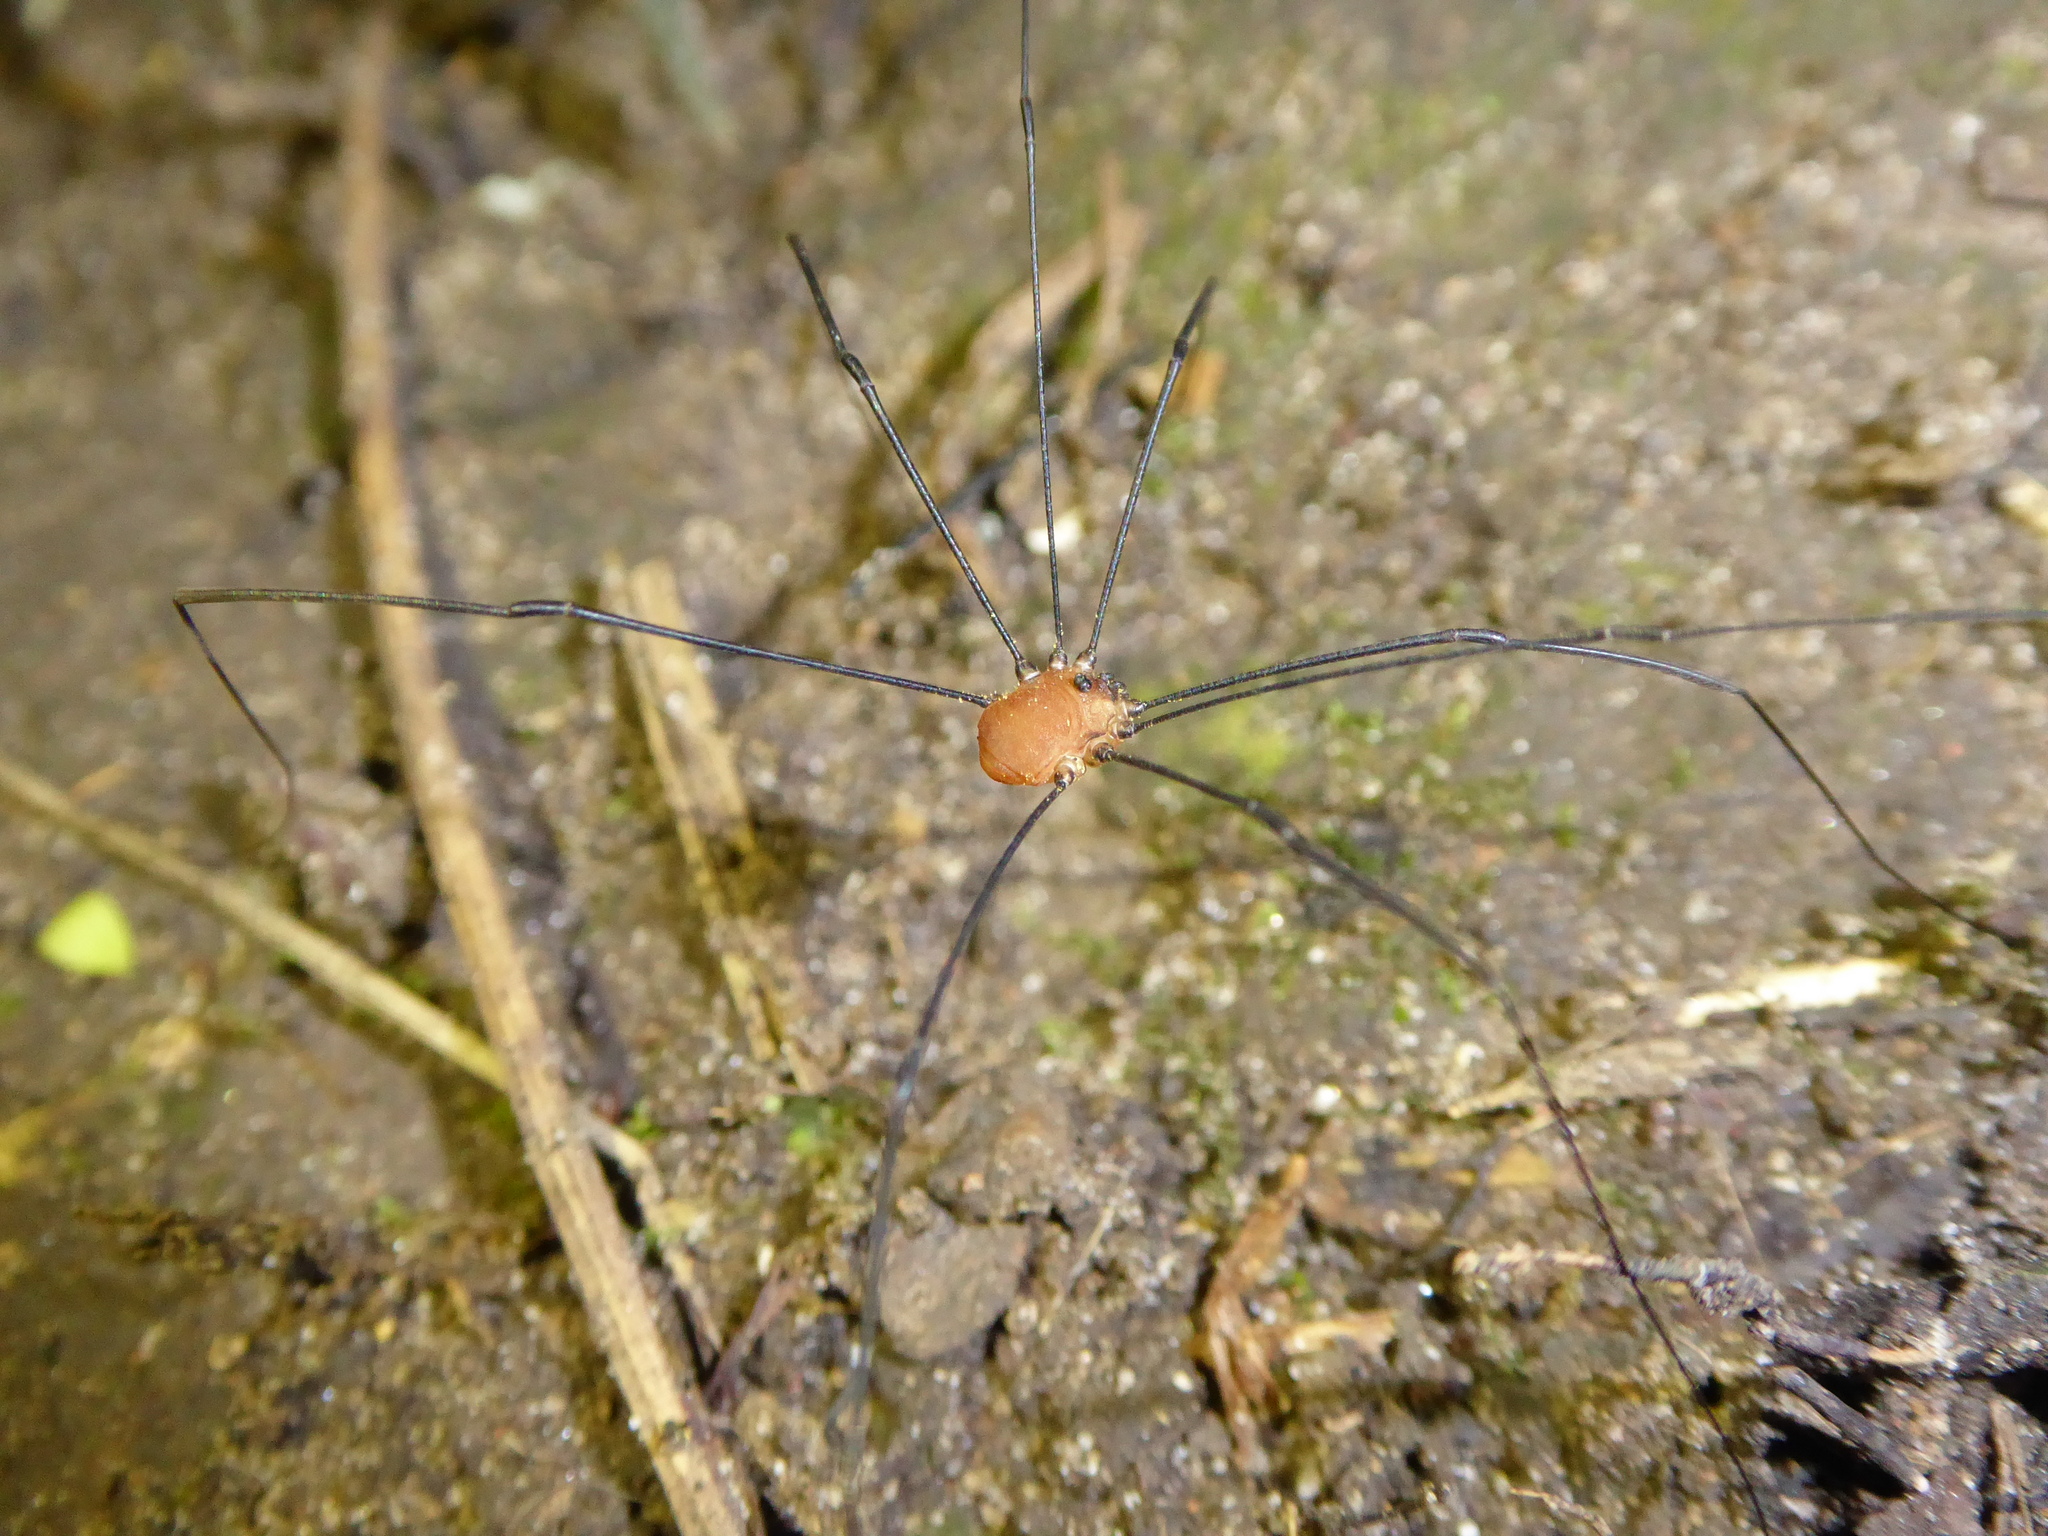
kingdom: Animalia
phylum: Arthropoda
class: Arachnida
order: Opiliones
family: Sclerosomatidae
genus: Leiobunum
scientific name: Leiobunum rotundum
